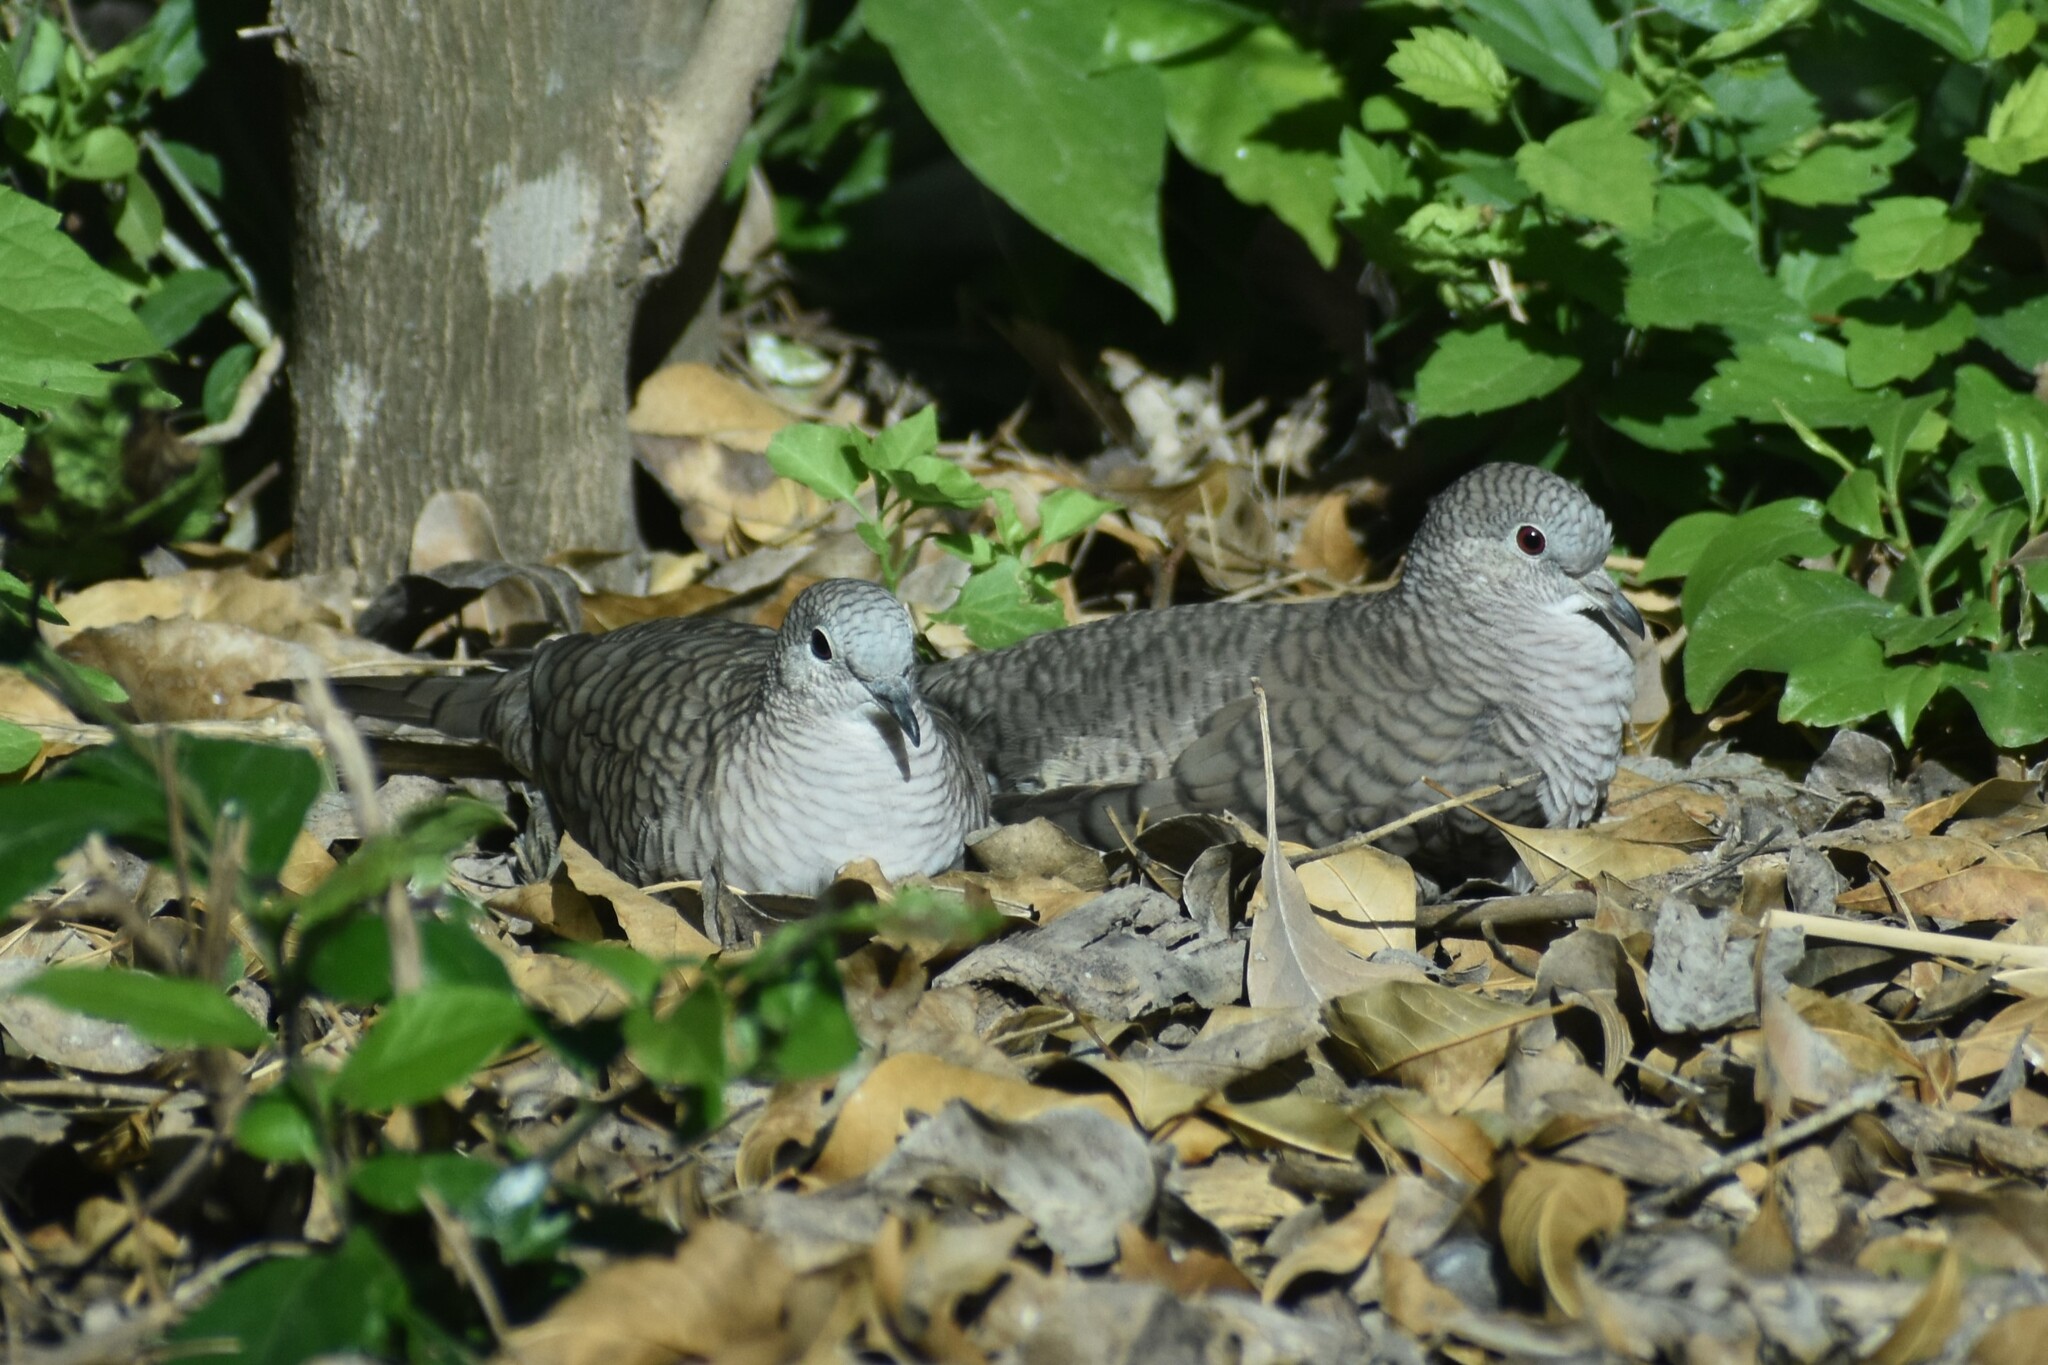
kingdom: Animalia
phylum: Chordata
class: Aves
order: Columbiformes
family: Columbidae
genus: Columbina
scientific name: Columbina inca
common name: Inca dove
